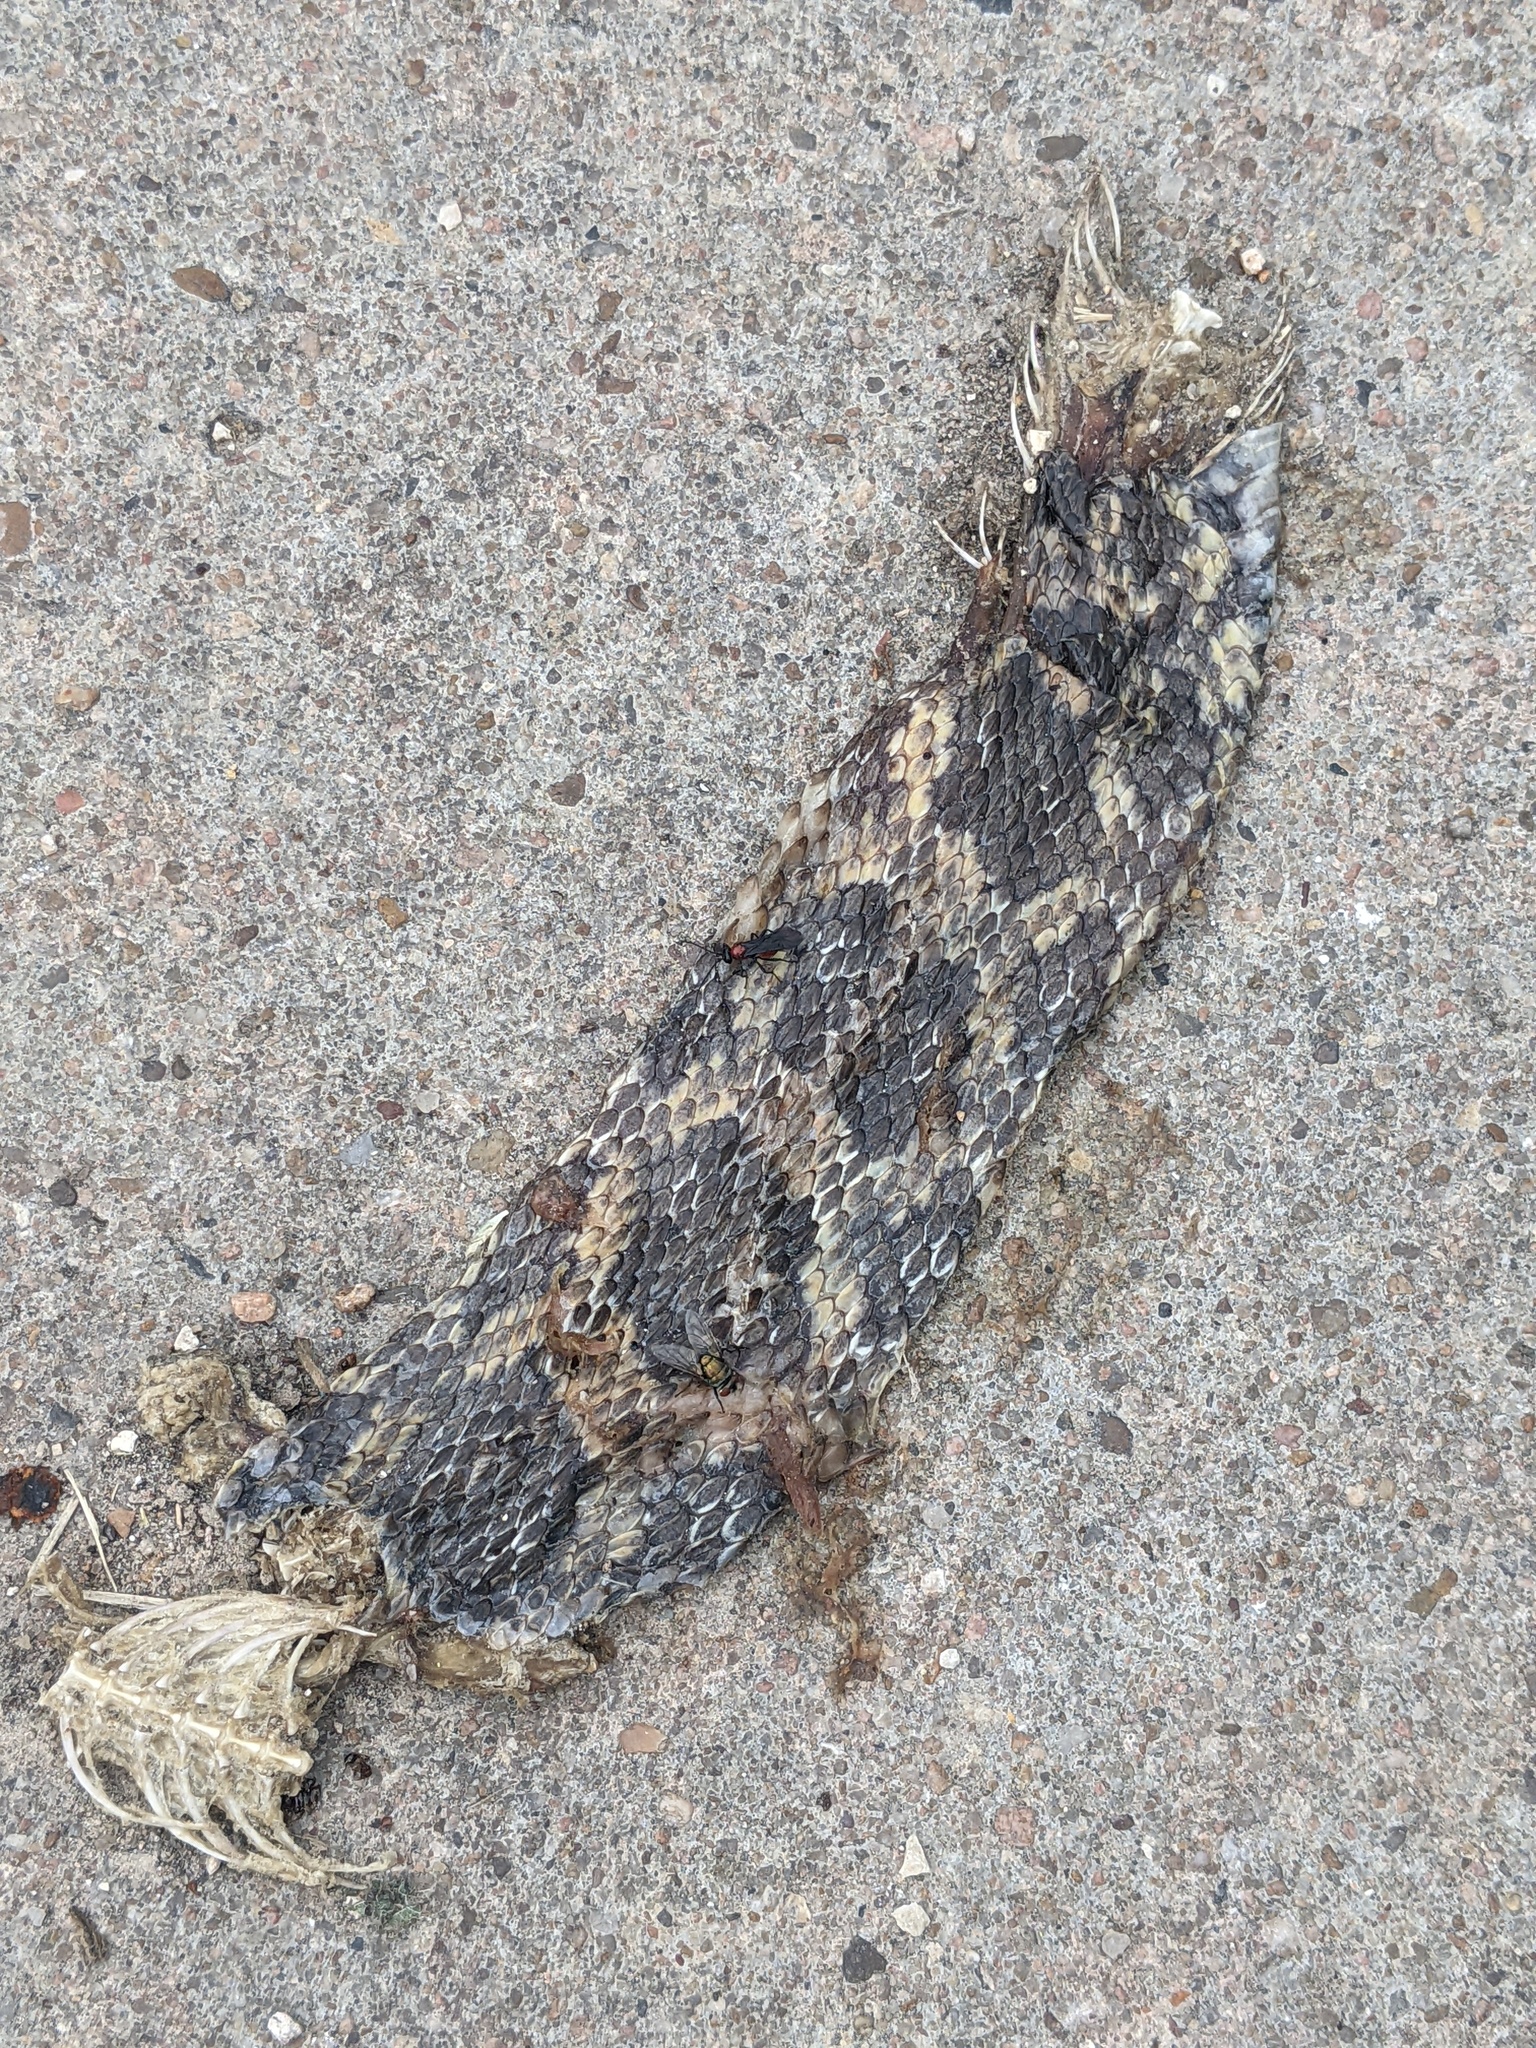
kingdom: Animalia
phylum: Chordata
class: Squamata
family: Colubridae
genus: Pantherophis
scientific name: Pantherophis obsoletus
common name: Black rat snake
